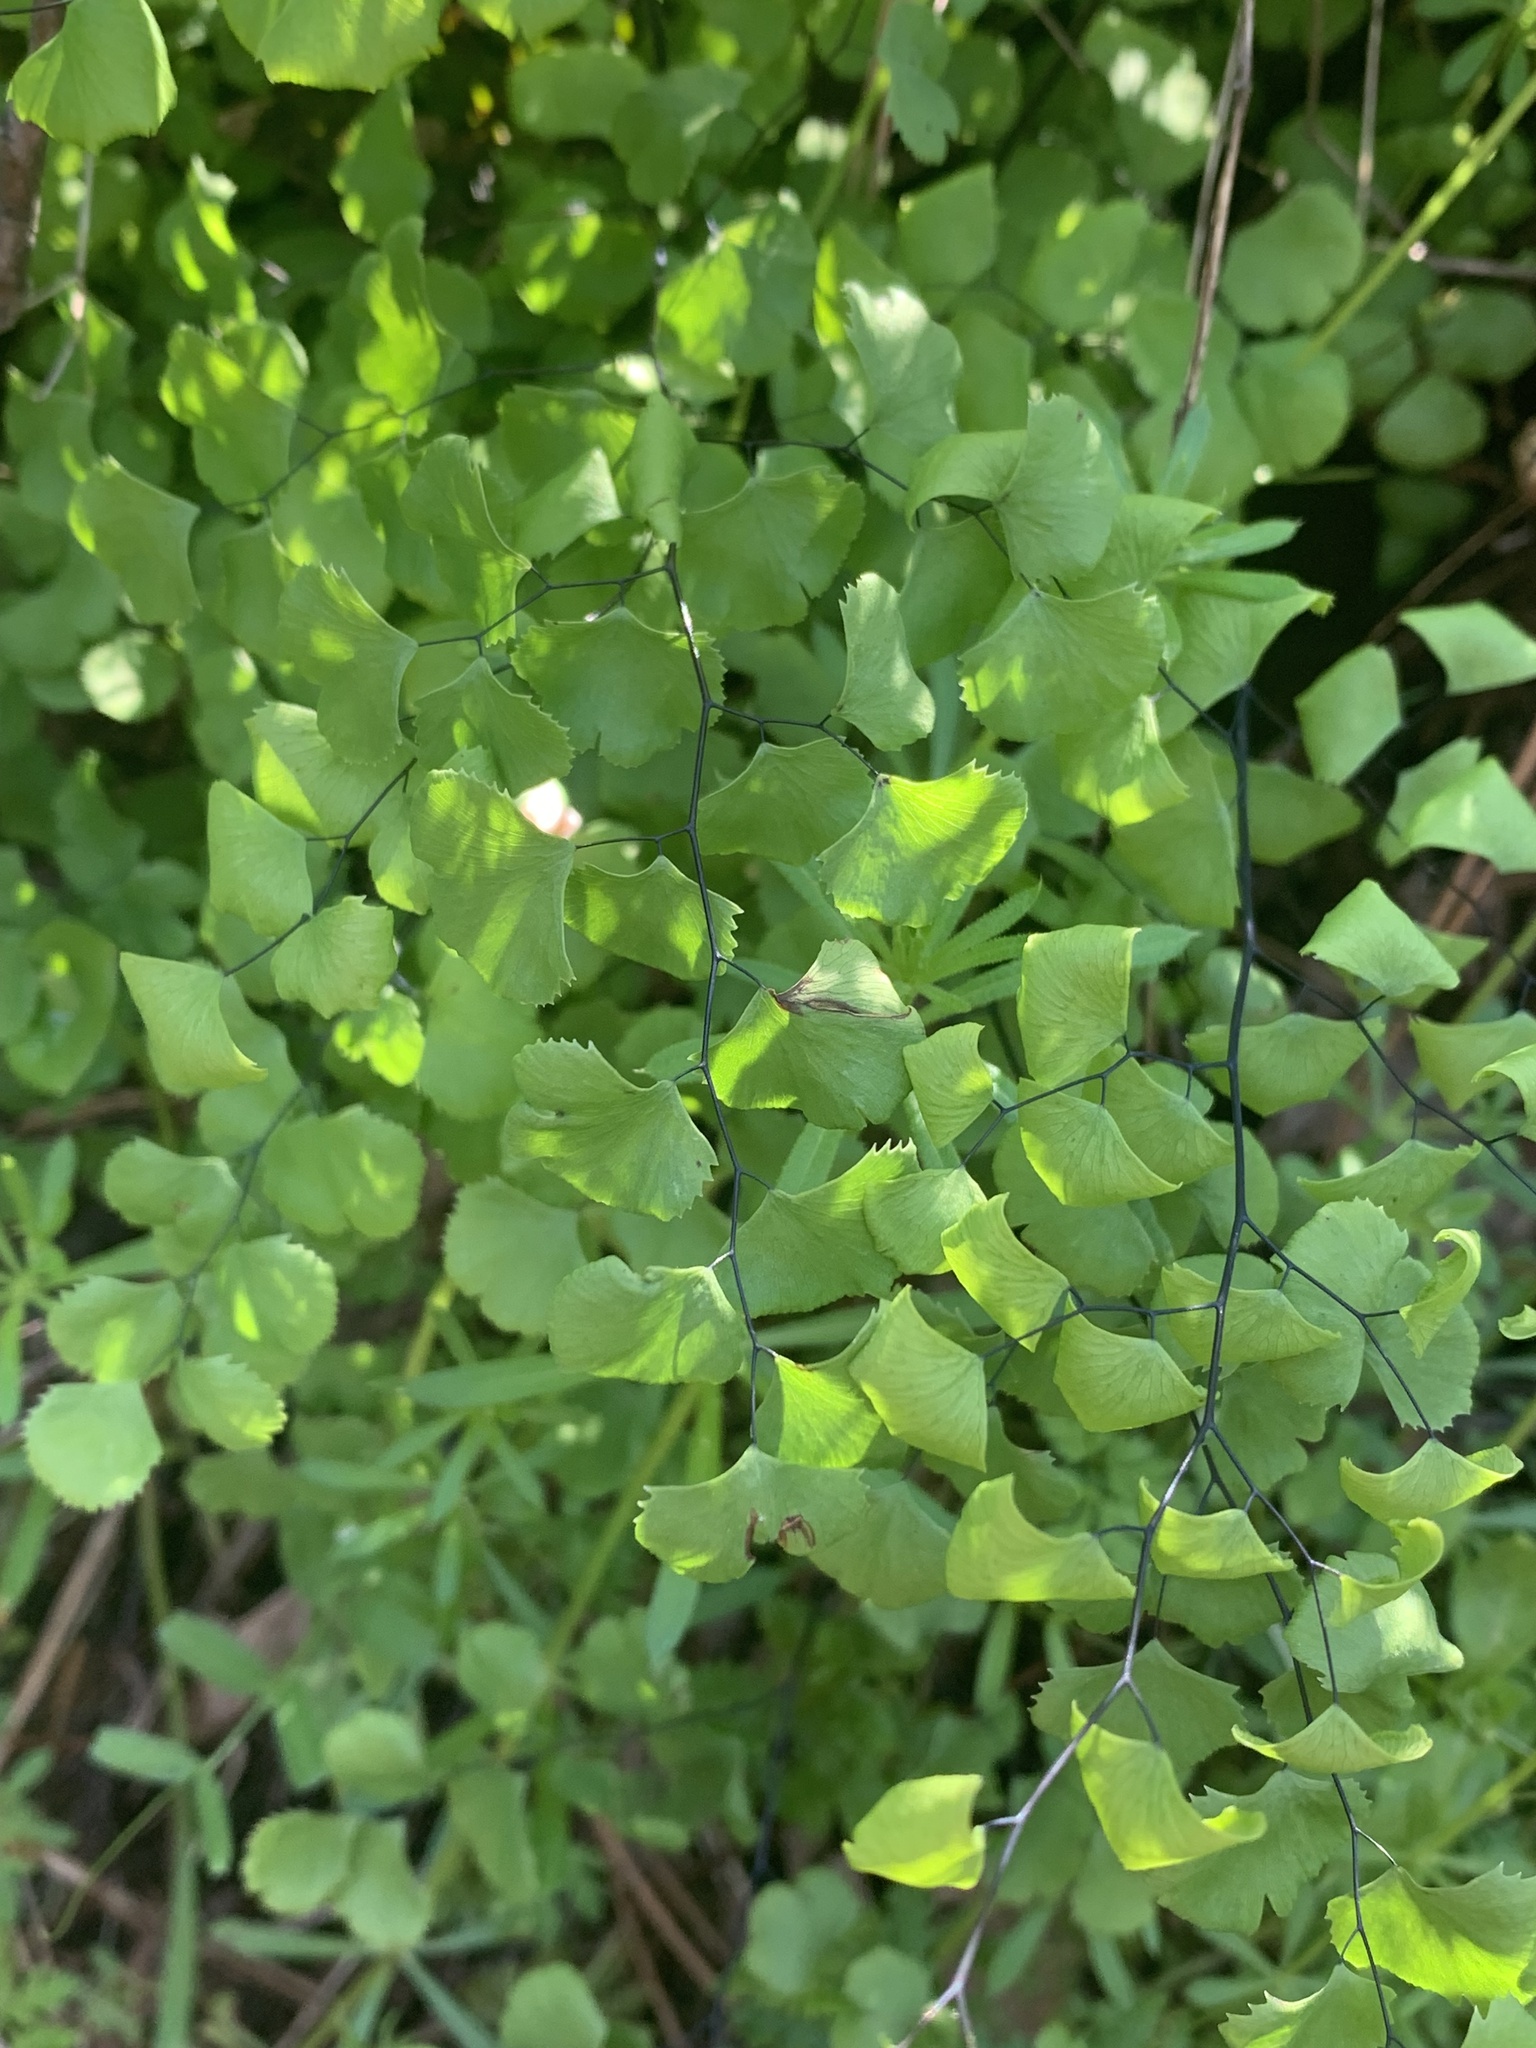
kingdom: Plantae
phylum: Tracheophyta
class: Polypodiopsida
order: Polypodiales
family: Pteridaceae
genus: Adiantum
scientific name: Adiantum jordanii
